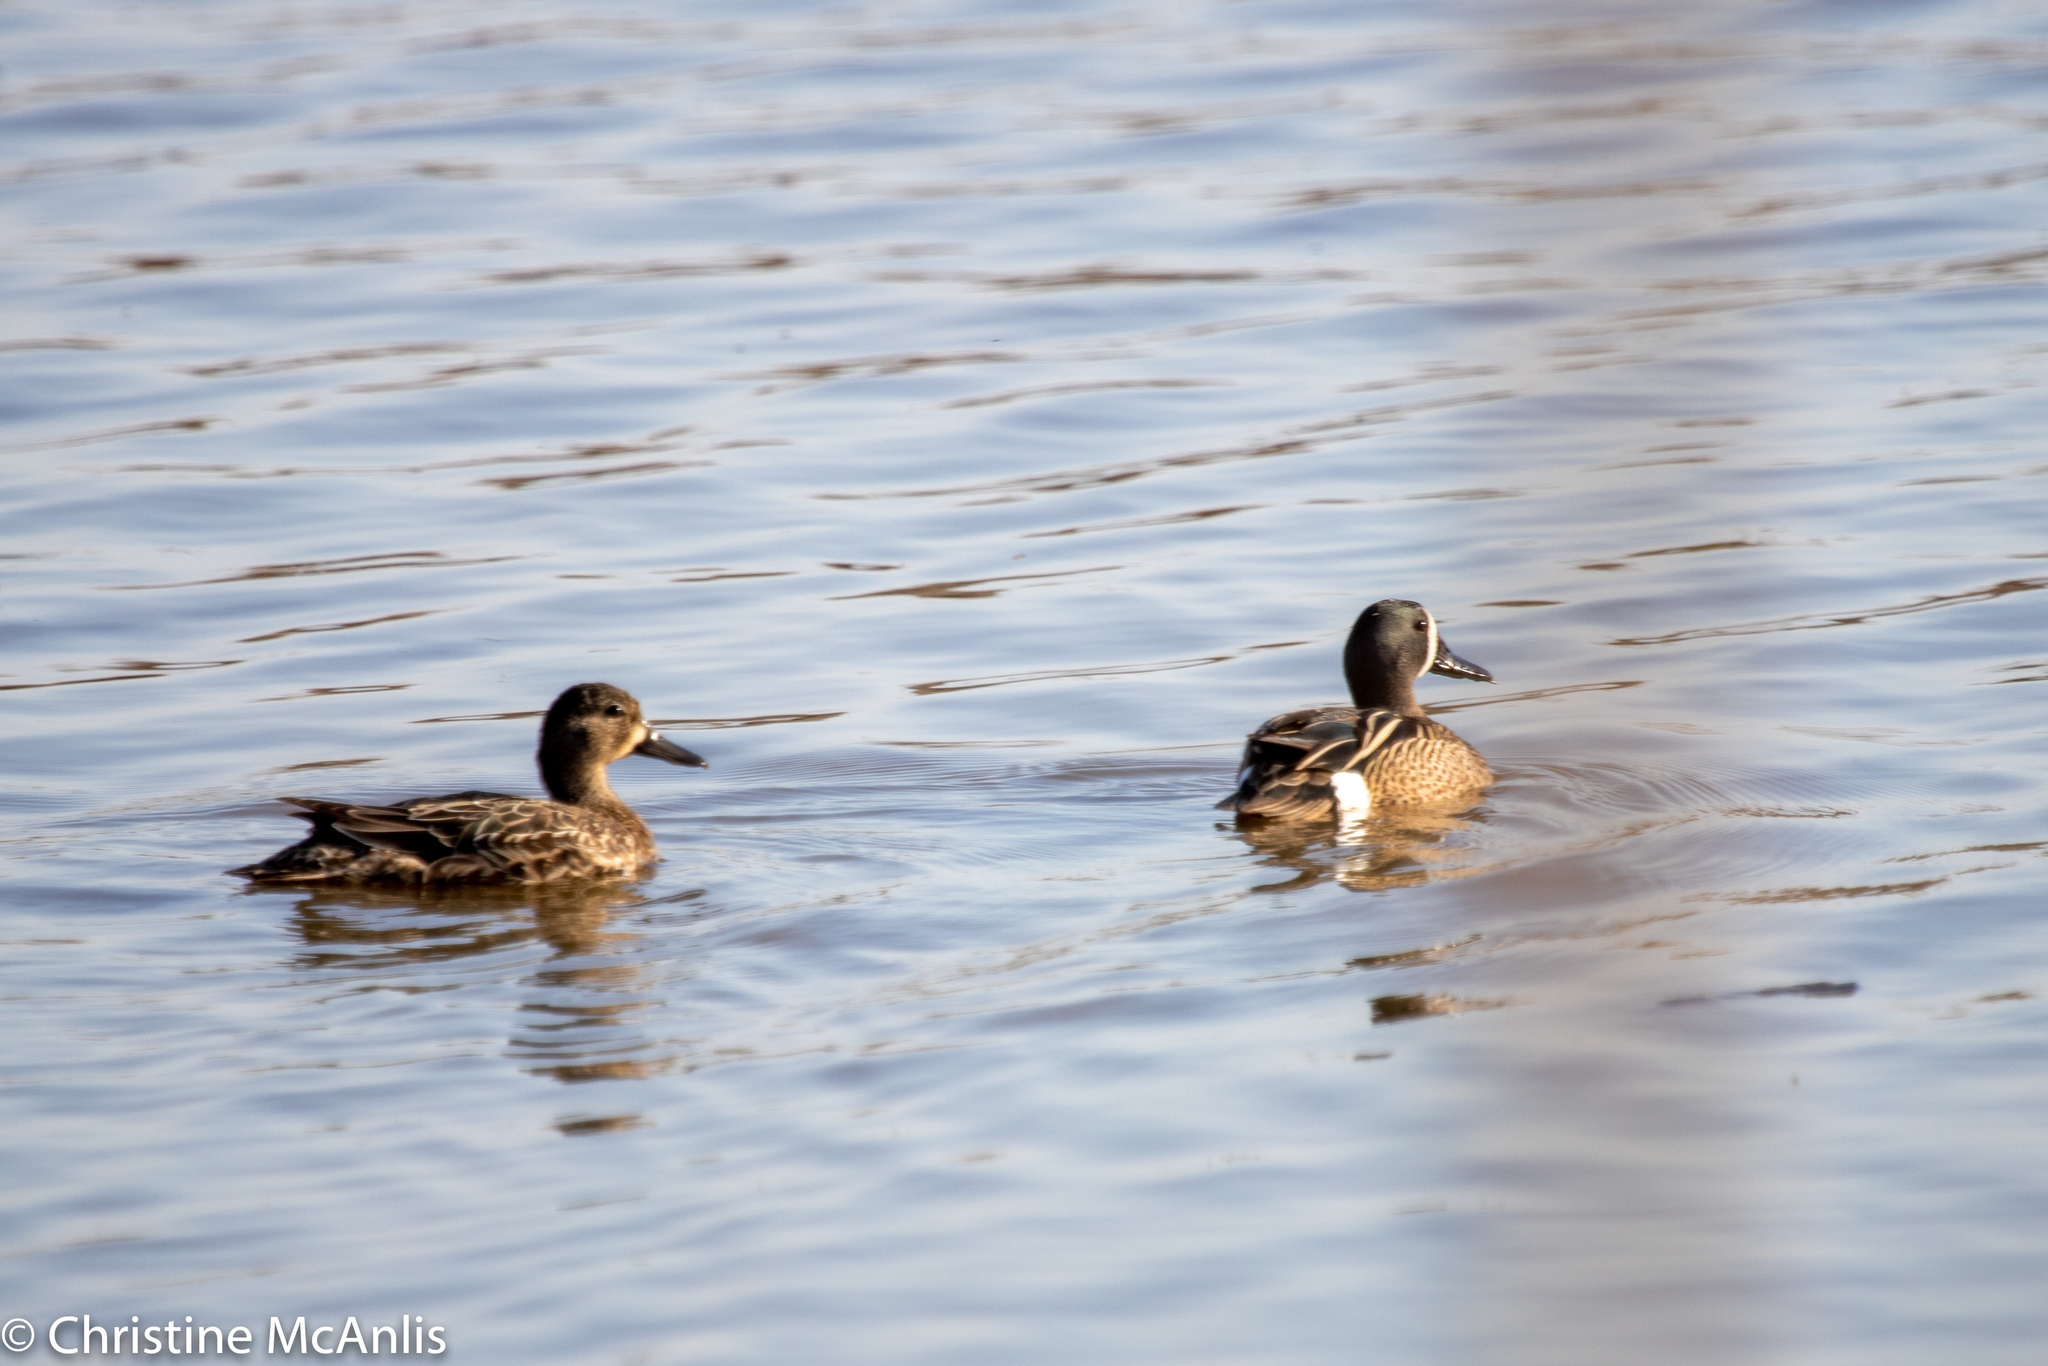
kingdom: Animalia
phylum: Chordata
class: Aves
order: Anseriformes
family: Anatidae
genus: Spatula
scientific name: Spatula discors
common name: Blue-winged teal
